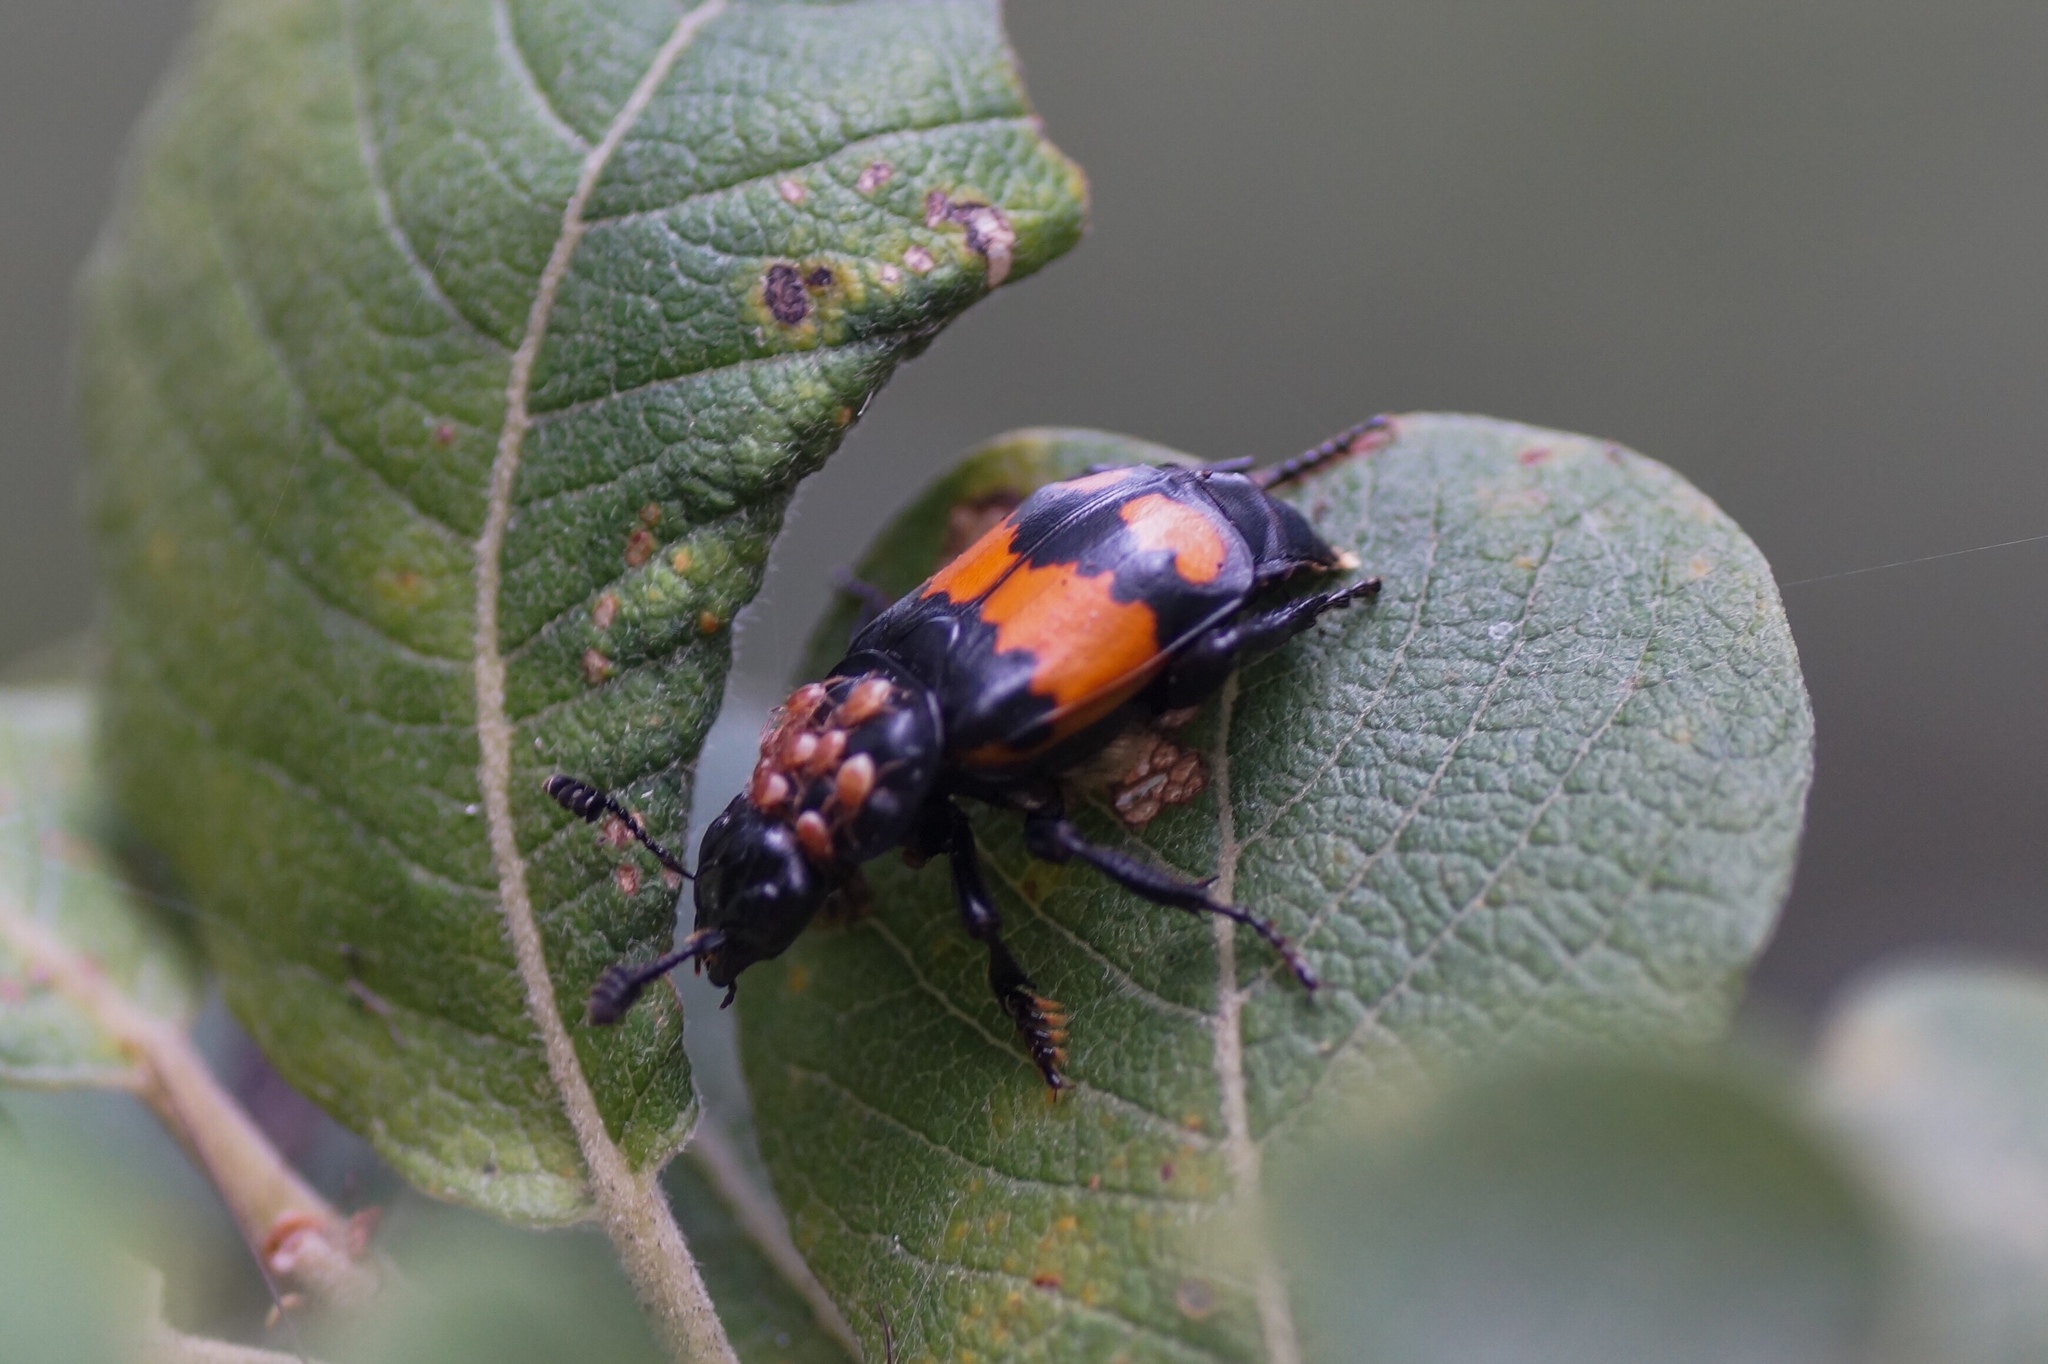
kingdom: Animalia
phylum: Arthropoda
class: Insecta
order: Coleoptera
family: Staphylinidae
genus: Nicrophorus
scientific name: Nicrophorus vespilloides
